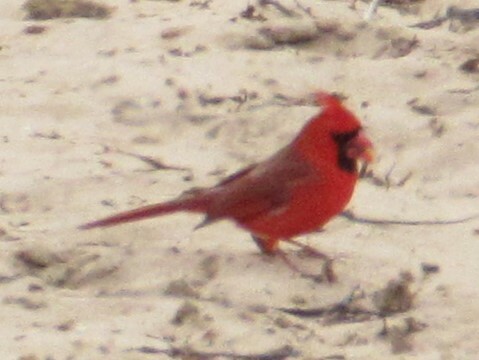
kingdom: Animalia
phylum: Chordata
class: Aves
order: Passeriformes
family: Cardinalidae
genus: Cardinalis
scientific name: Cardinalis cardinalis
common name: Northern cardinal
